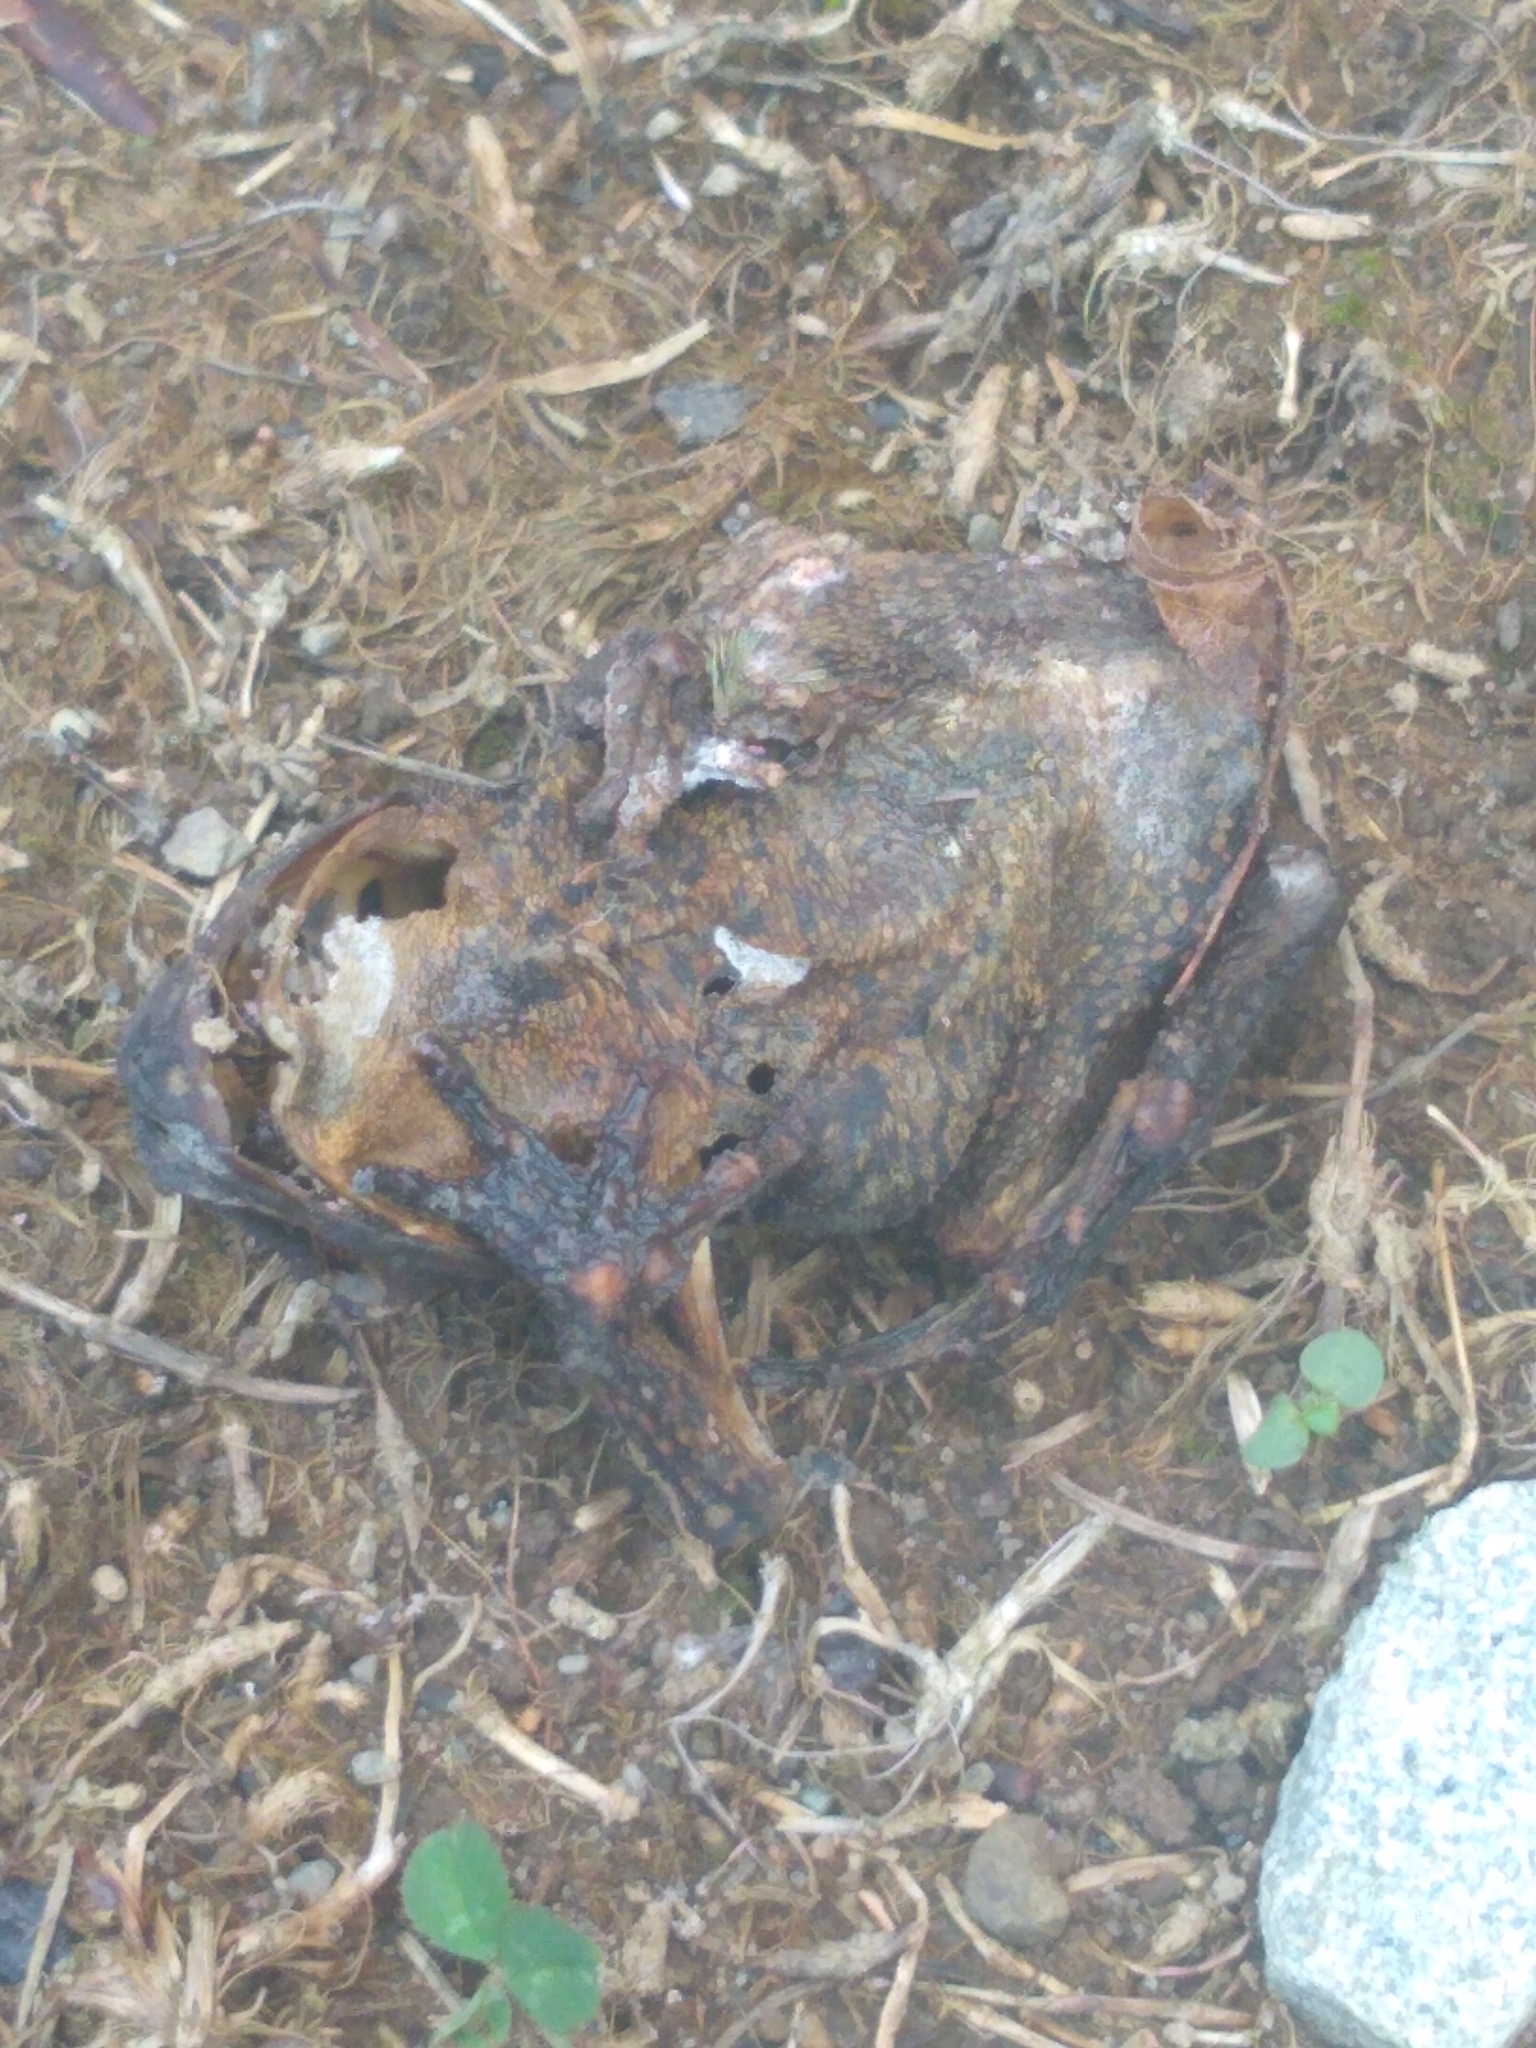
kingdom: Animalia
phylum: Chordata
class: Amphibia
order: Anura
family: Bufonidae
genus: Anaxyrus
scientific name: Anaxyrus americanus
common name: American toad
